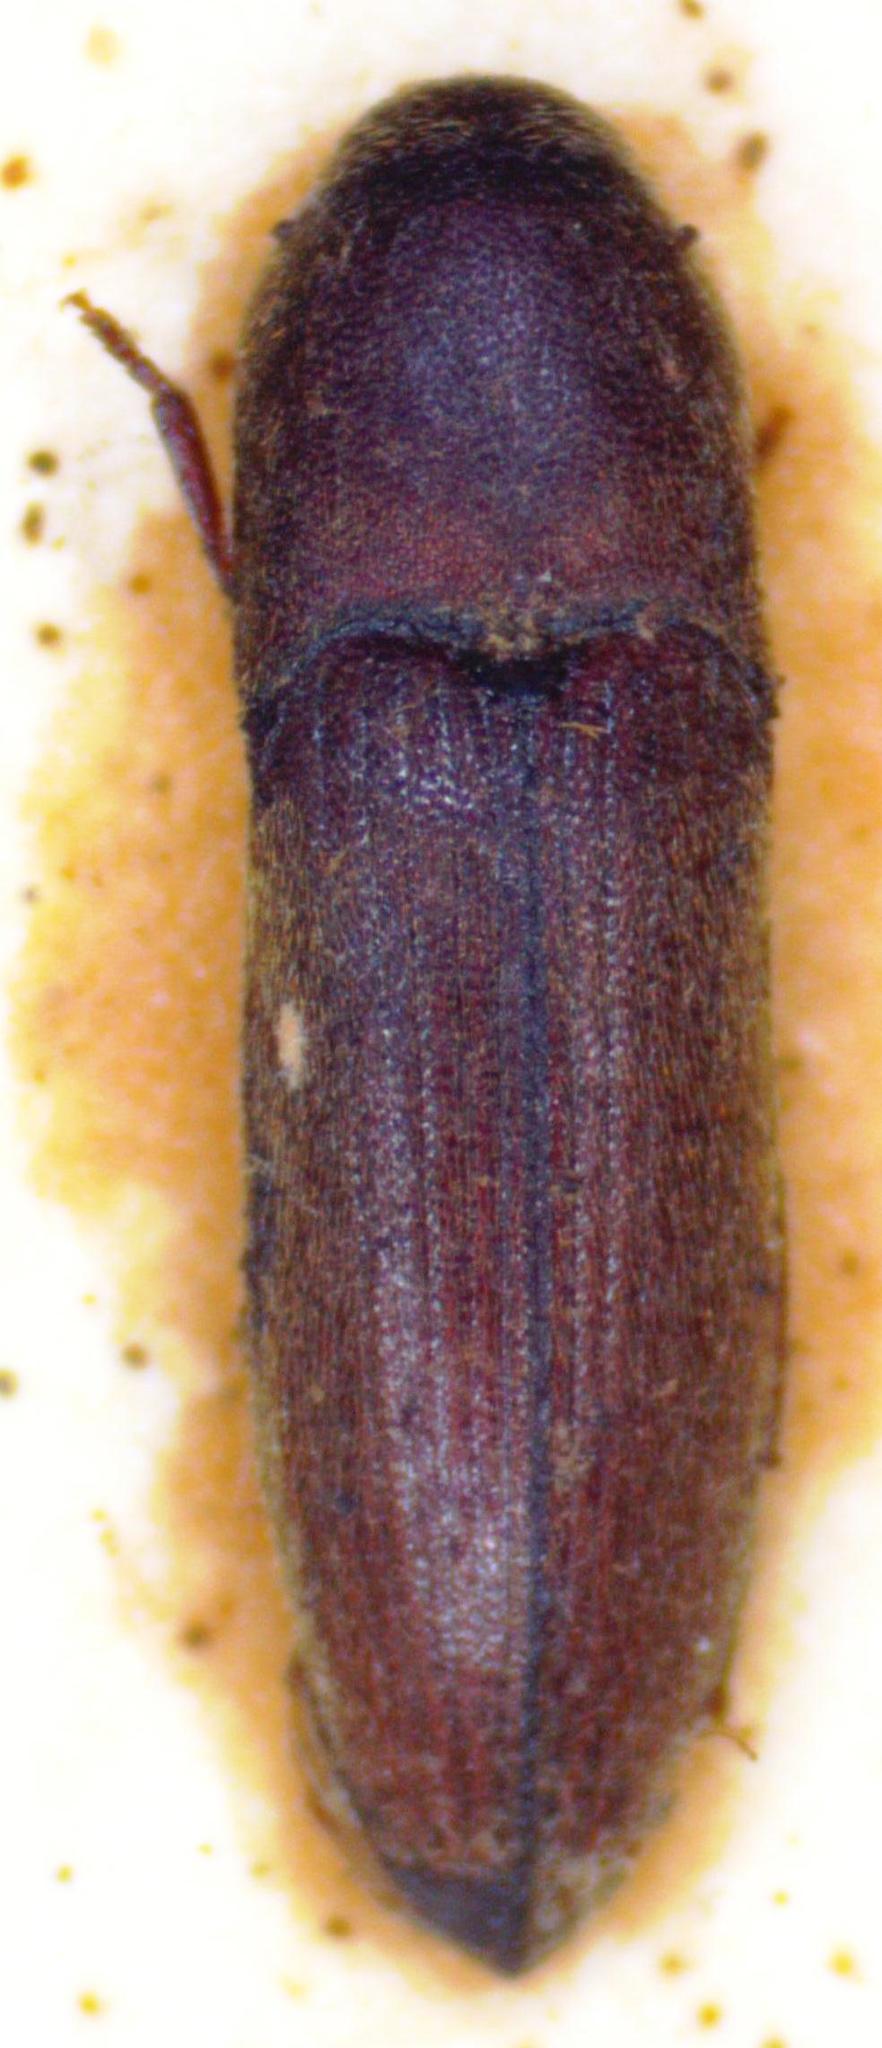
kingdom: Animalia
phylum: Arthropoda
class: Insecta
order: Coleoptera
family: Eucnemidae
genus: Fornax
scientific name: Fornax infrequens
